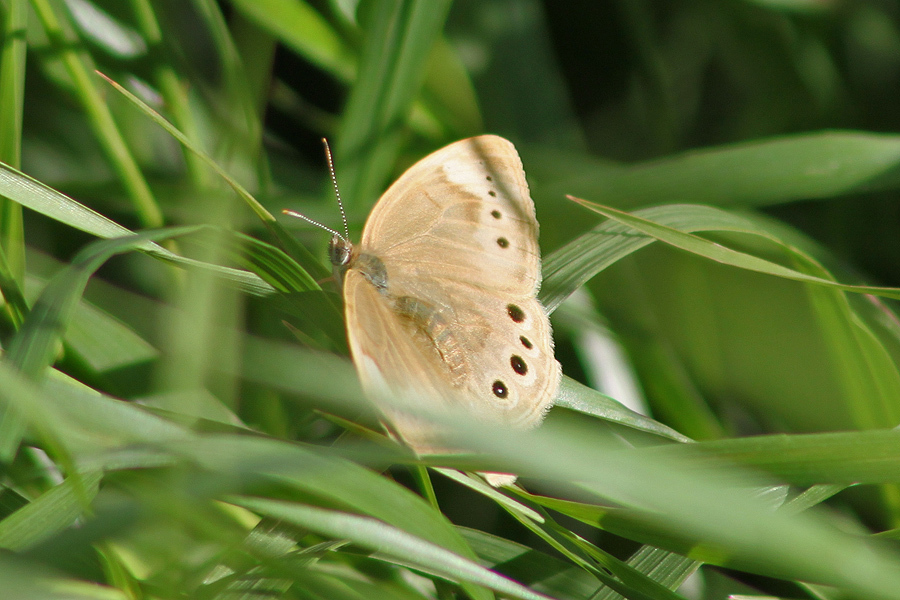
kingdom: Animalia
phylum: Arthropoda
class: Insecta
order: Lepidoptera
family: Nymphalidae
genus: Lethe
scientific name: Lethe eurydice
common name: Eyed brown
